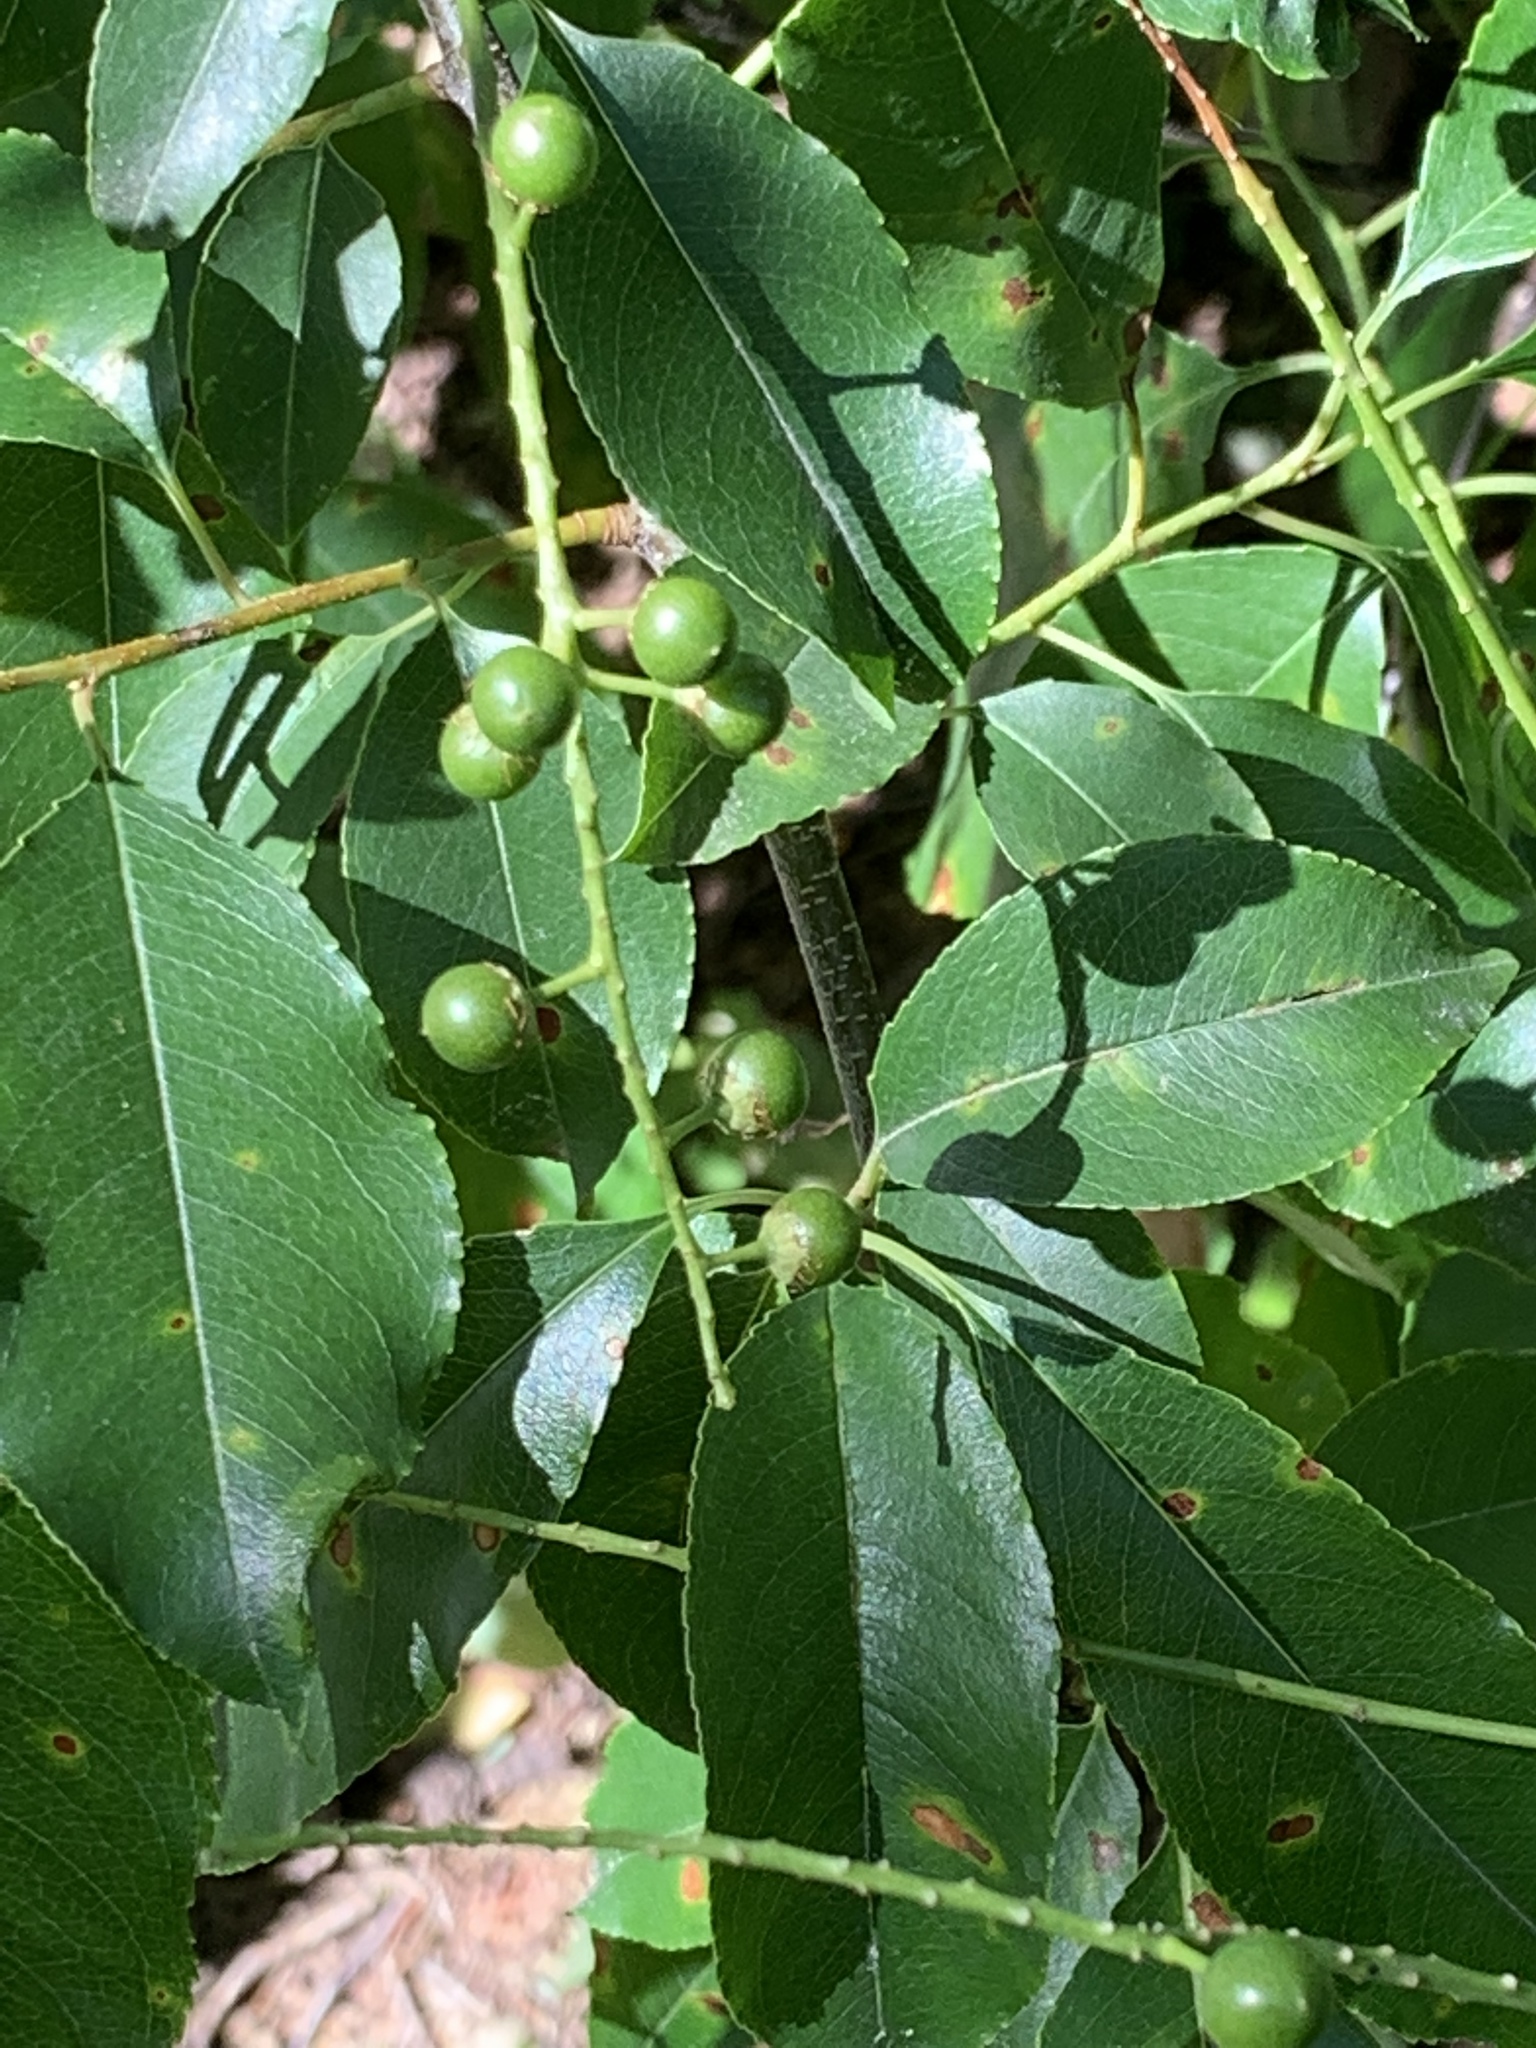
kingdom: Plantae
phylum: Tracheophyta
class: Magnoliopsida
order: Rosales
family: Rosaceae
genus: Prunus
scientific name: Prunus serotina
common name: Black cherry
